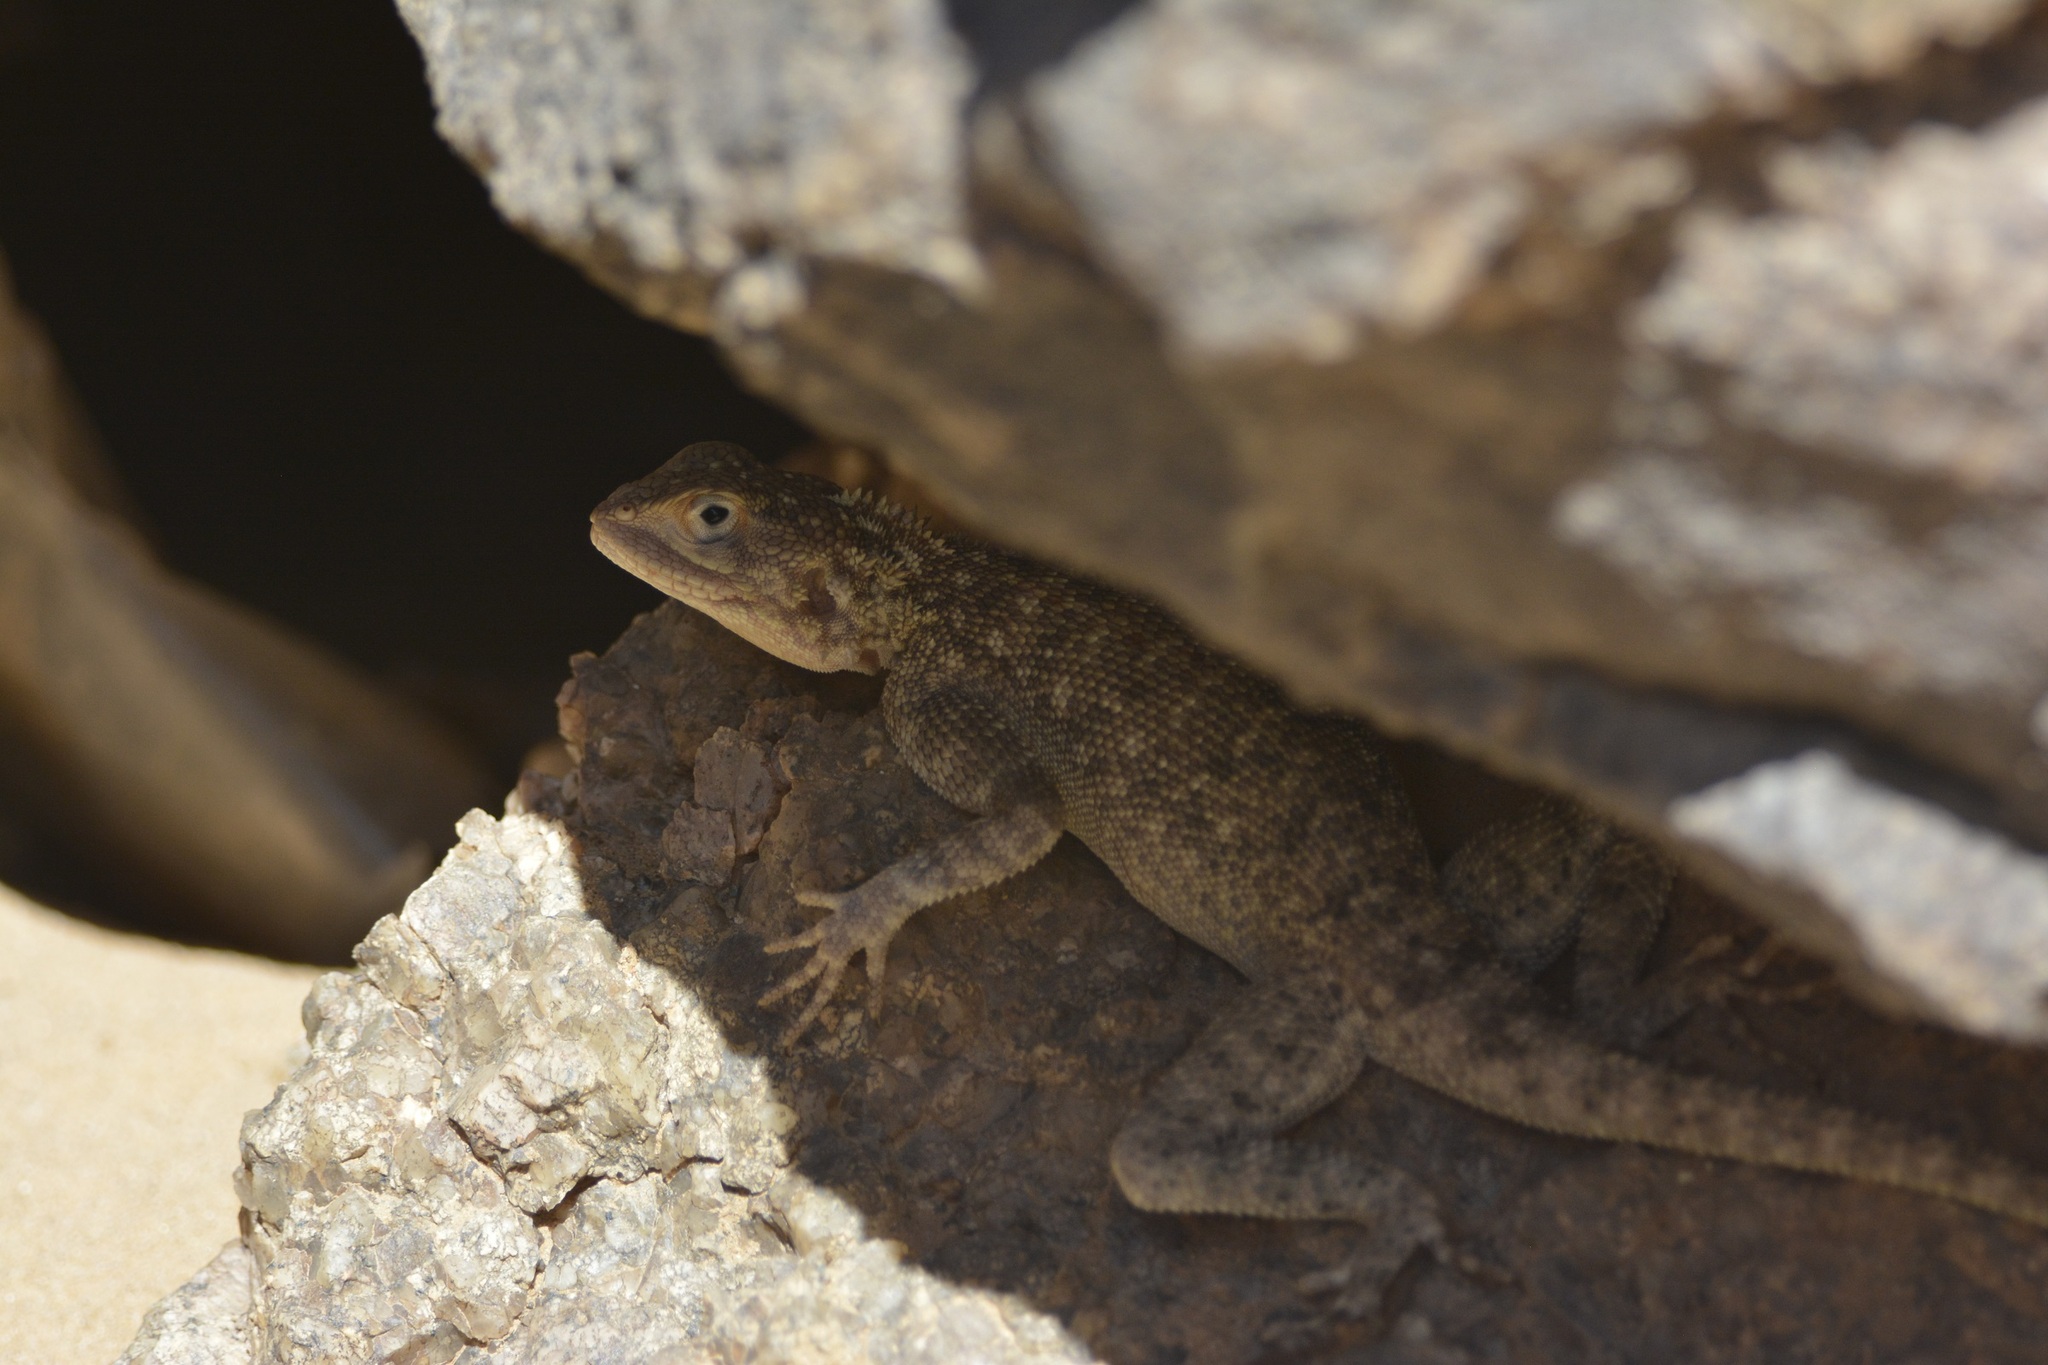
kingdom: Animalia
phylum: Chordata
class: Squamata
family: Agamidae
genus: Agama
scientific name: Agama tassiliensis
